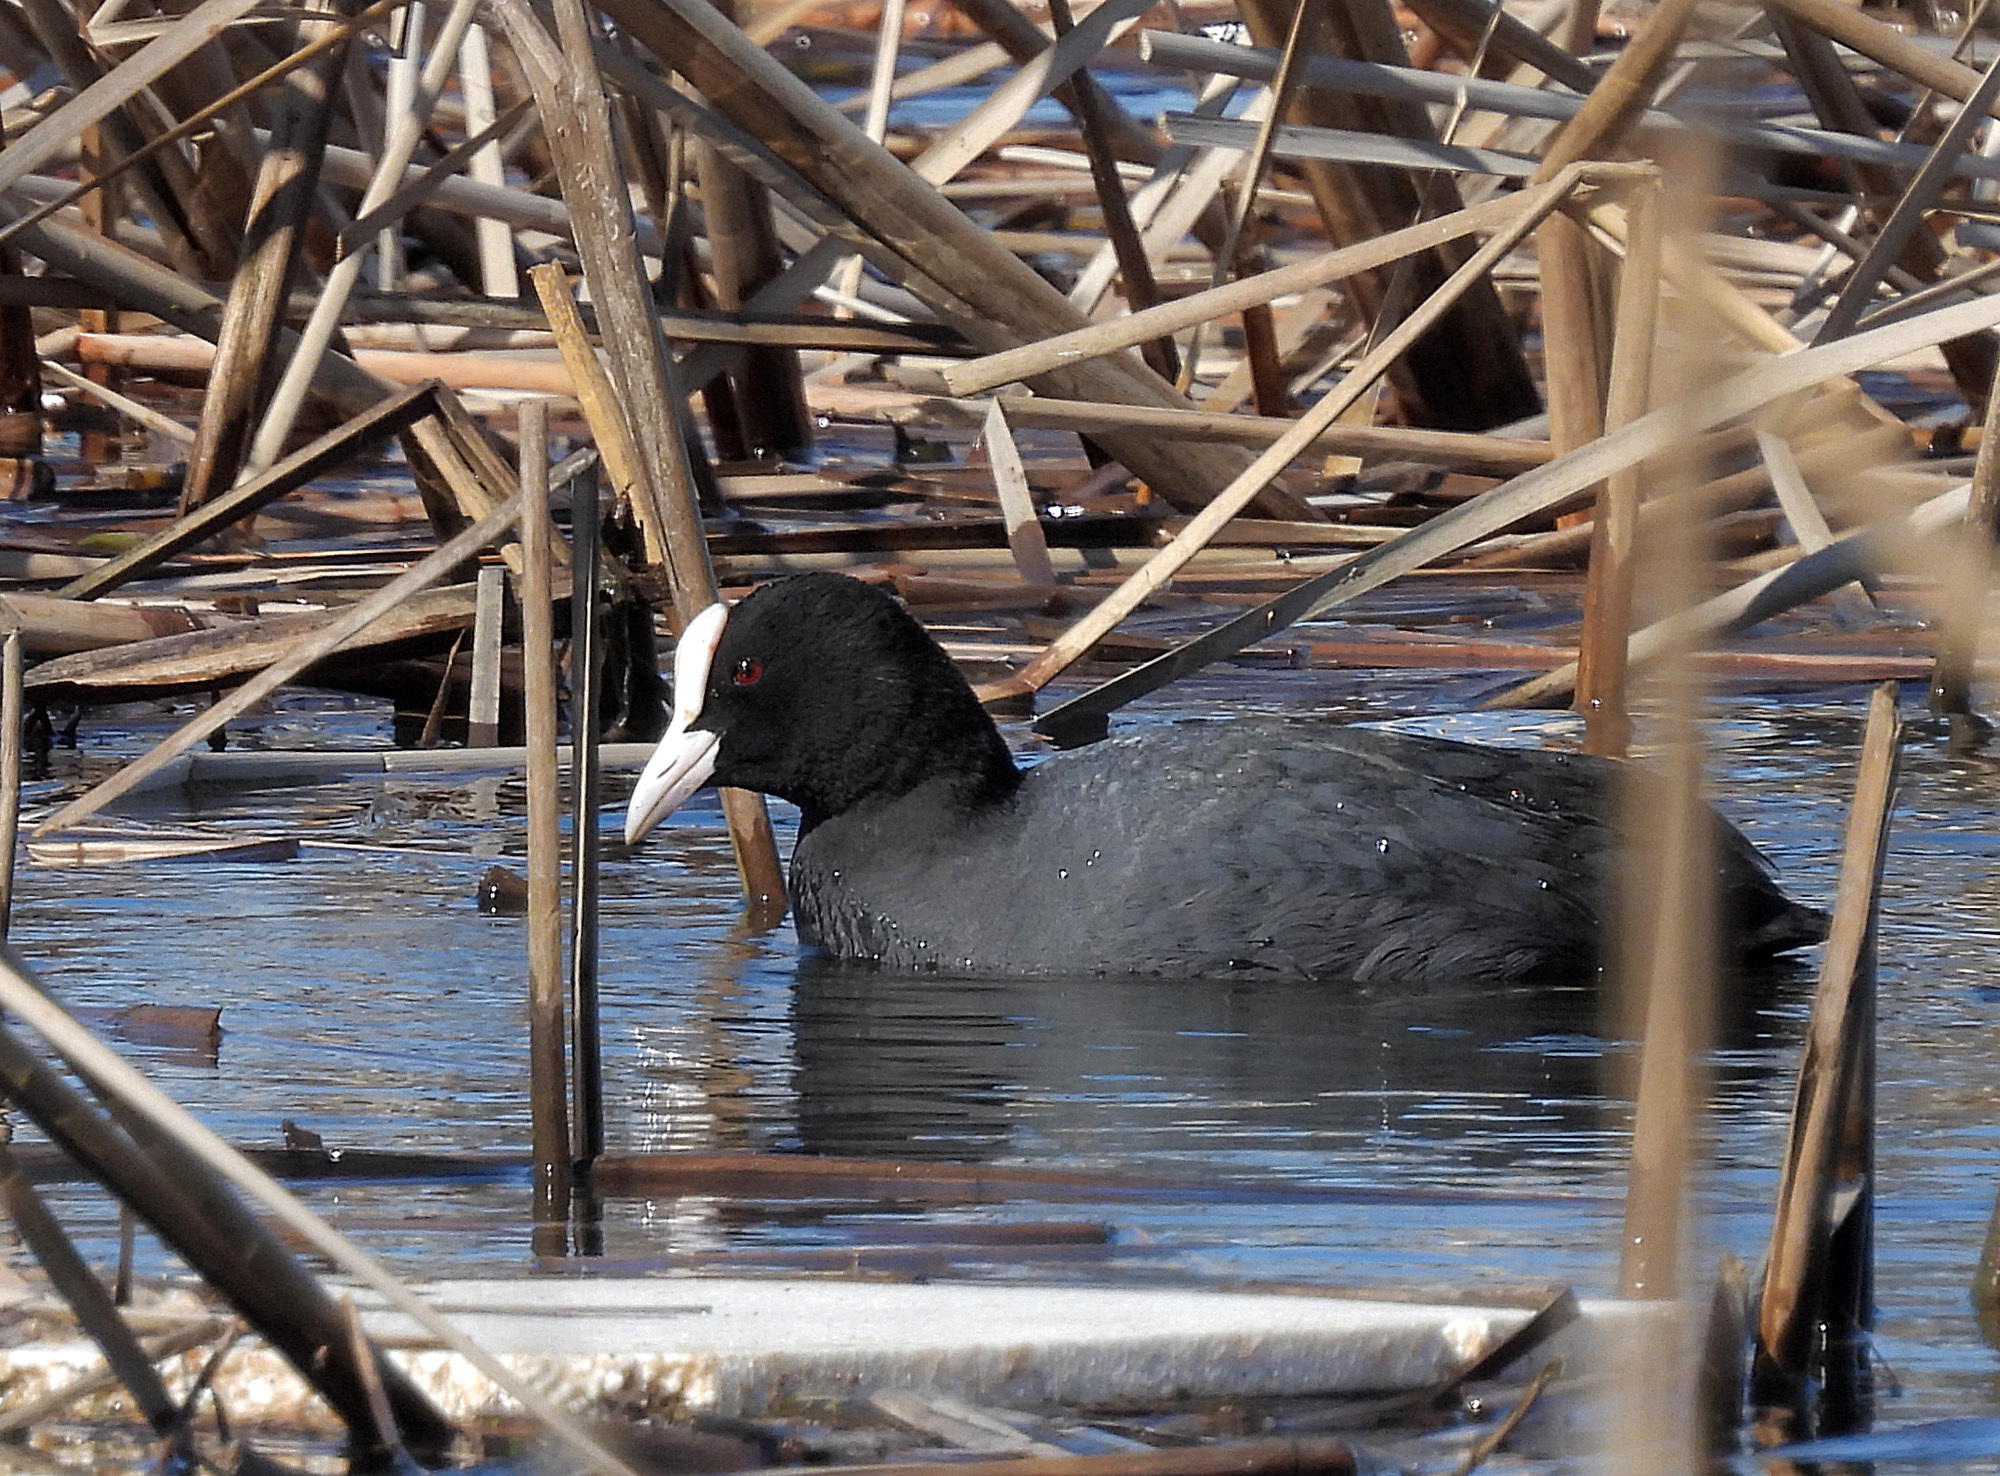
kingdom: Animalia
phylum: Chordata
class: Aves
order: Gruiformes
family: Rallidae
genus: Fulica
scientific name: Fulica atra
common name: Eurasian coot
